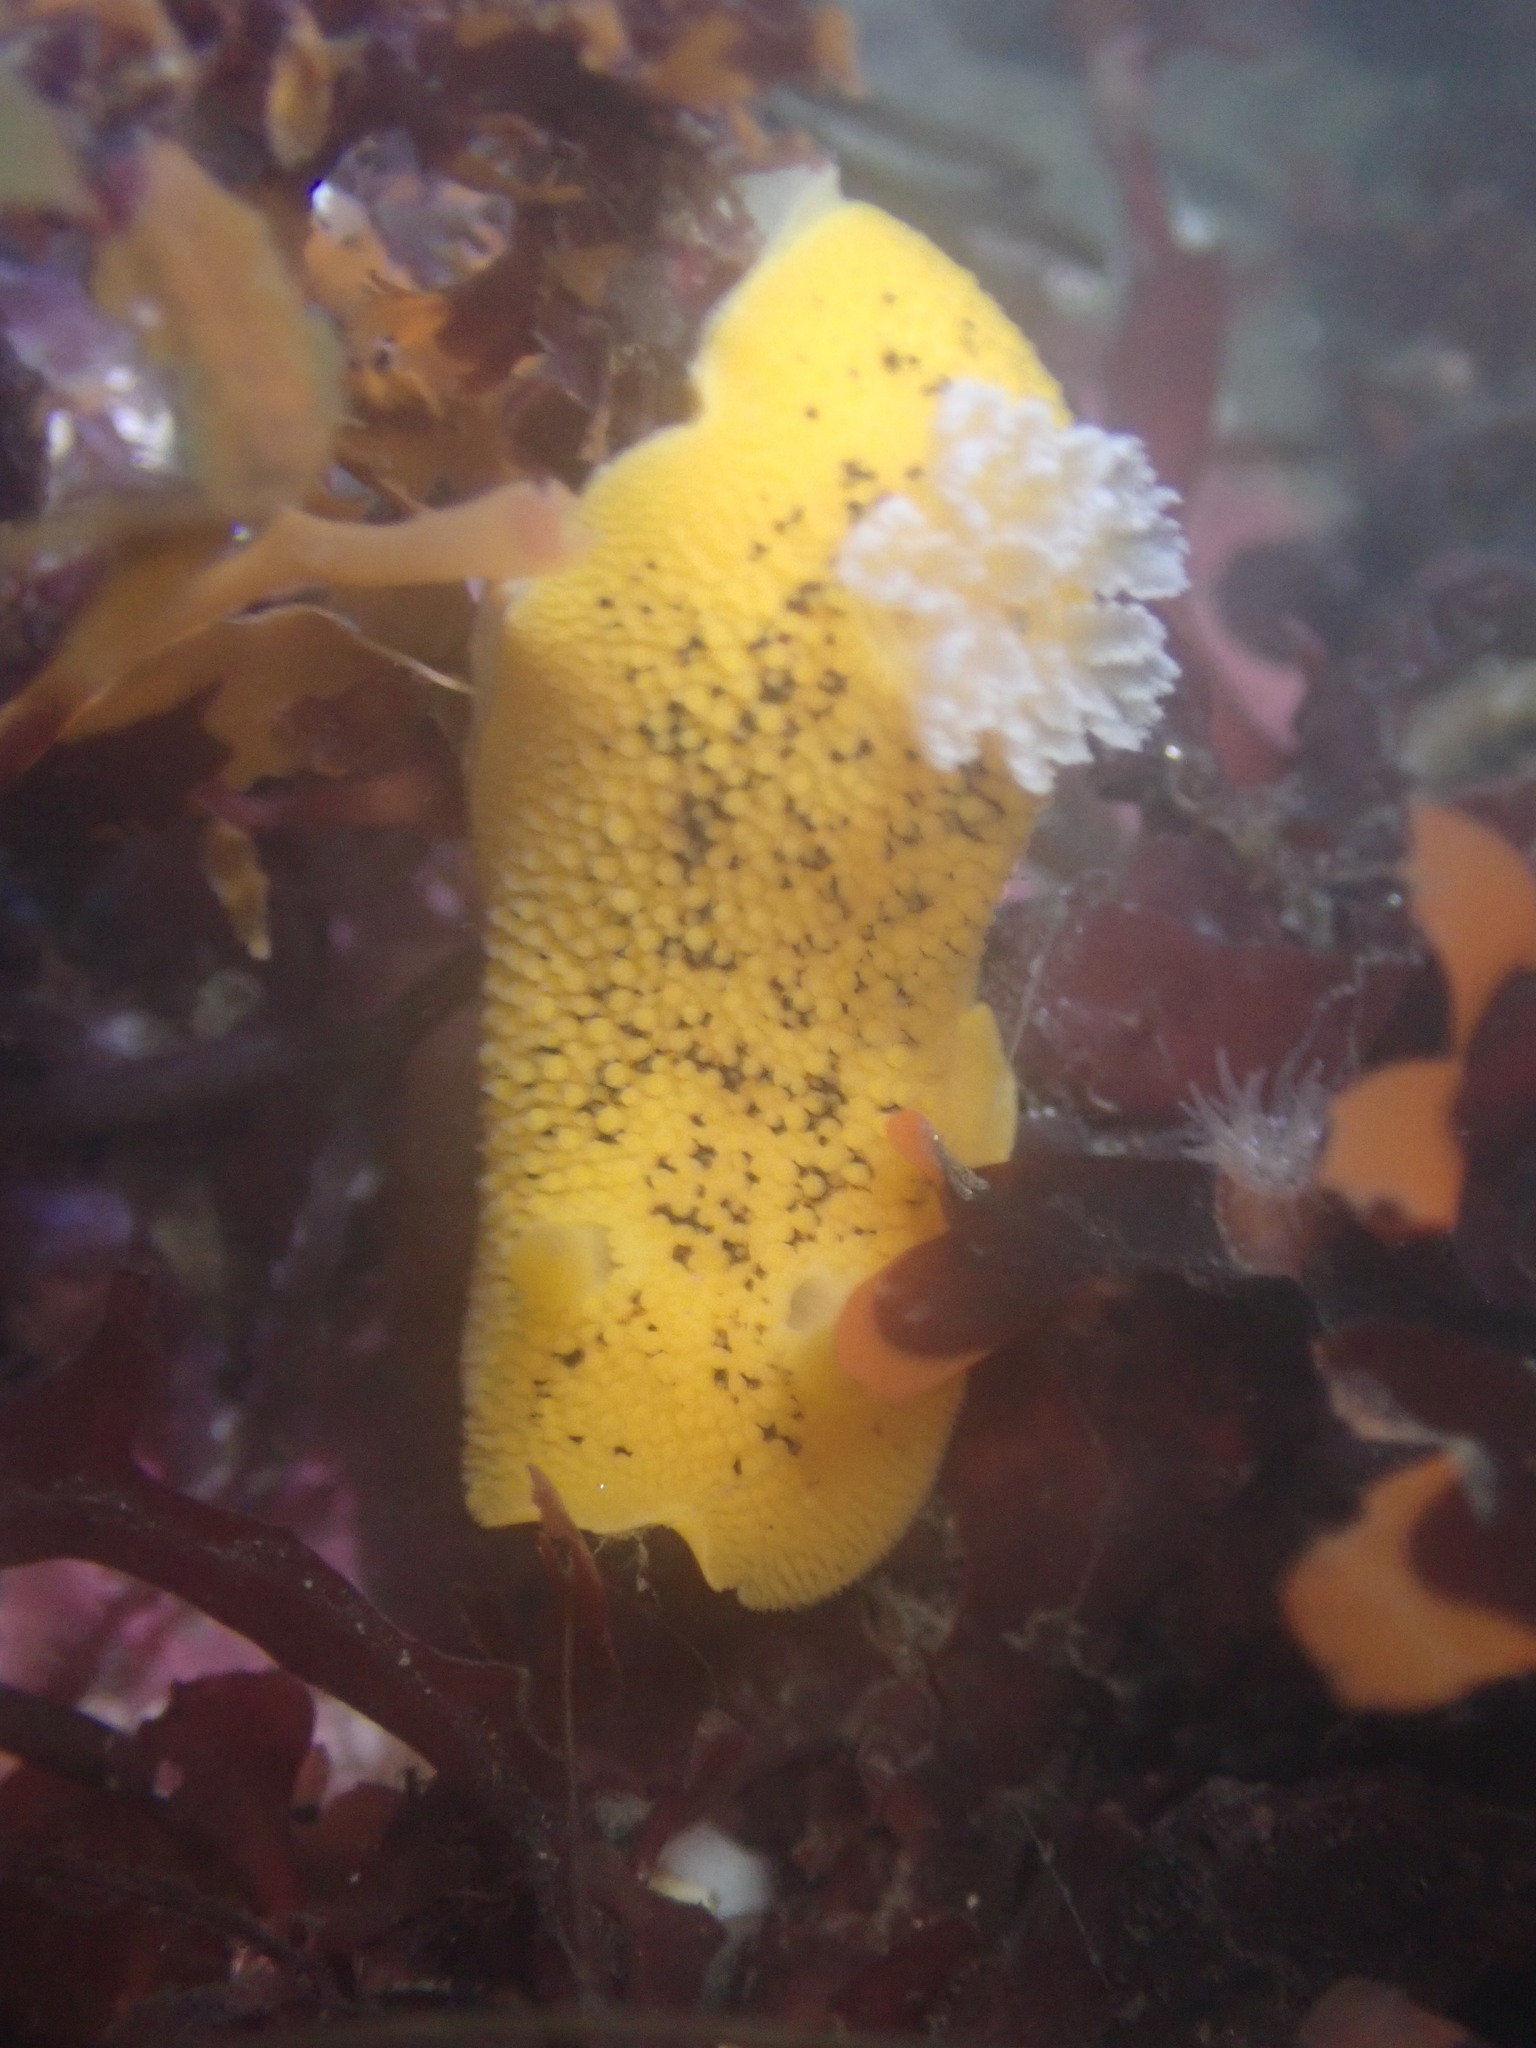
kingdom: Animalia
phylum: Mollusca
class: Gastropoda
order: Nudibranchia
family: Discodorididae
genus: Peltodoris
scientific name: Peltodoris nobilis
